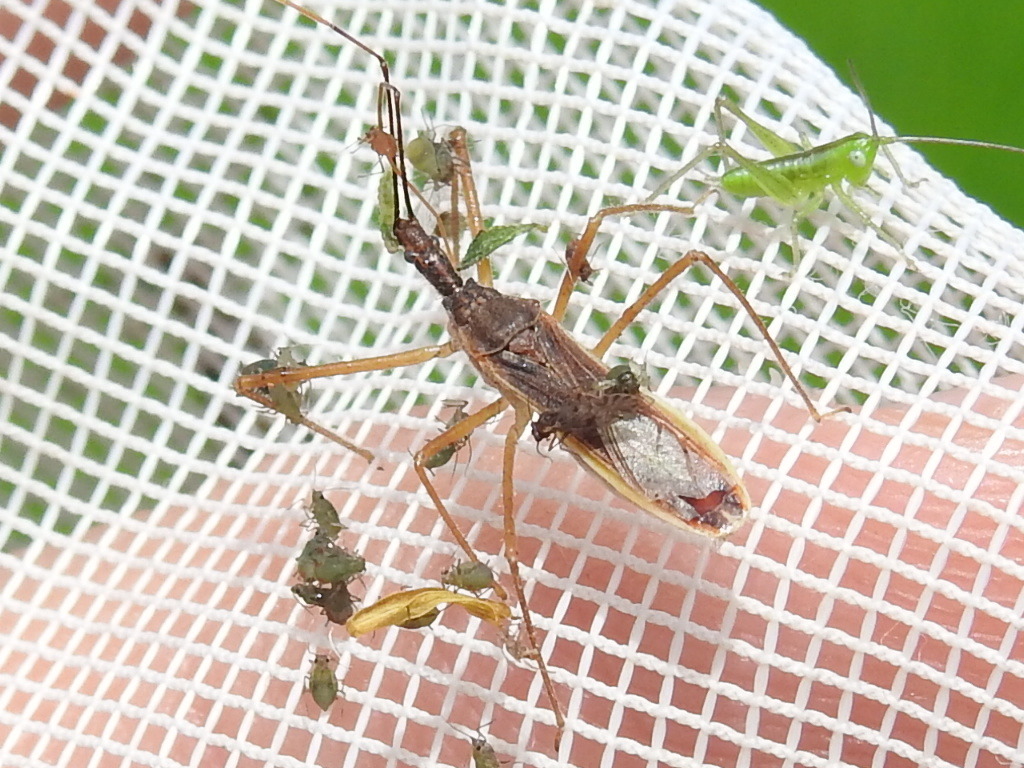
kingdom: Animalia
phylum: Arthropoda
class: Insecta
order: Hemiptera
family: Reduviidae
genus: Zelus
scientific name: Zelus cervicalis
